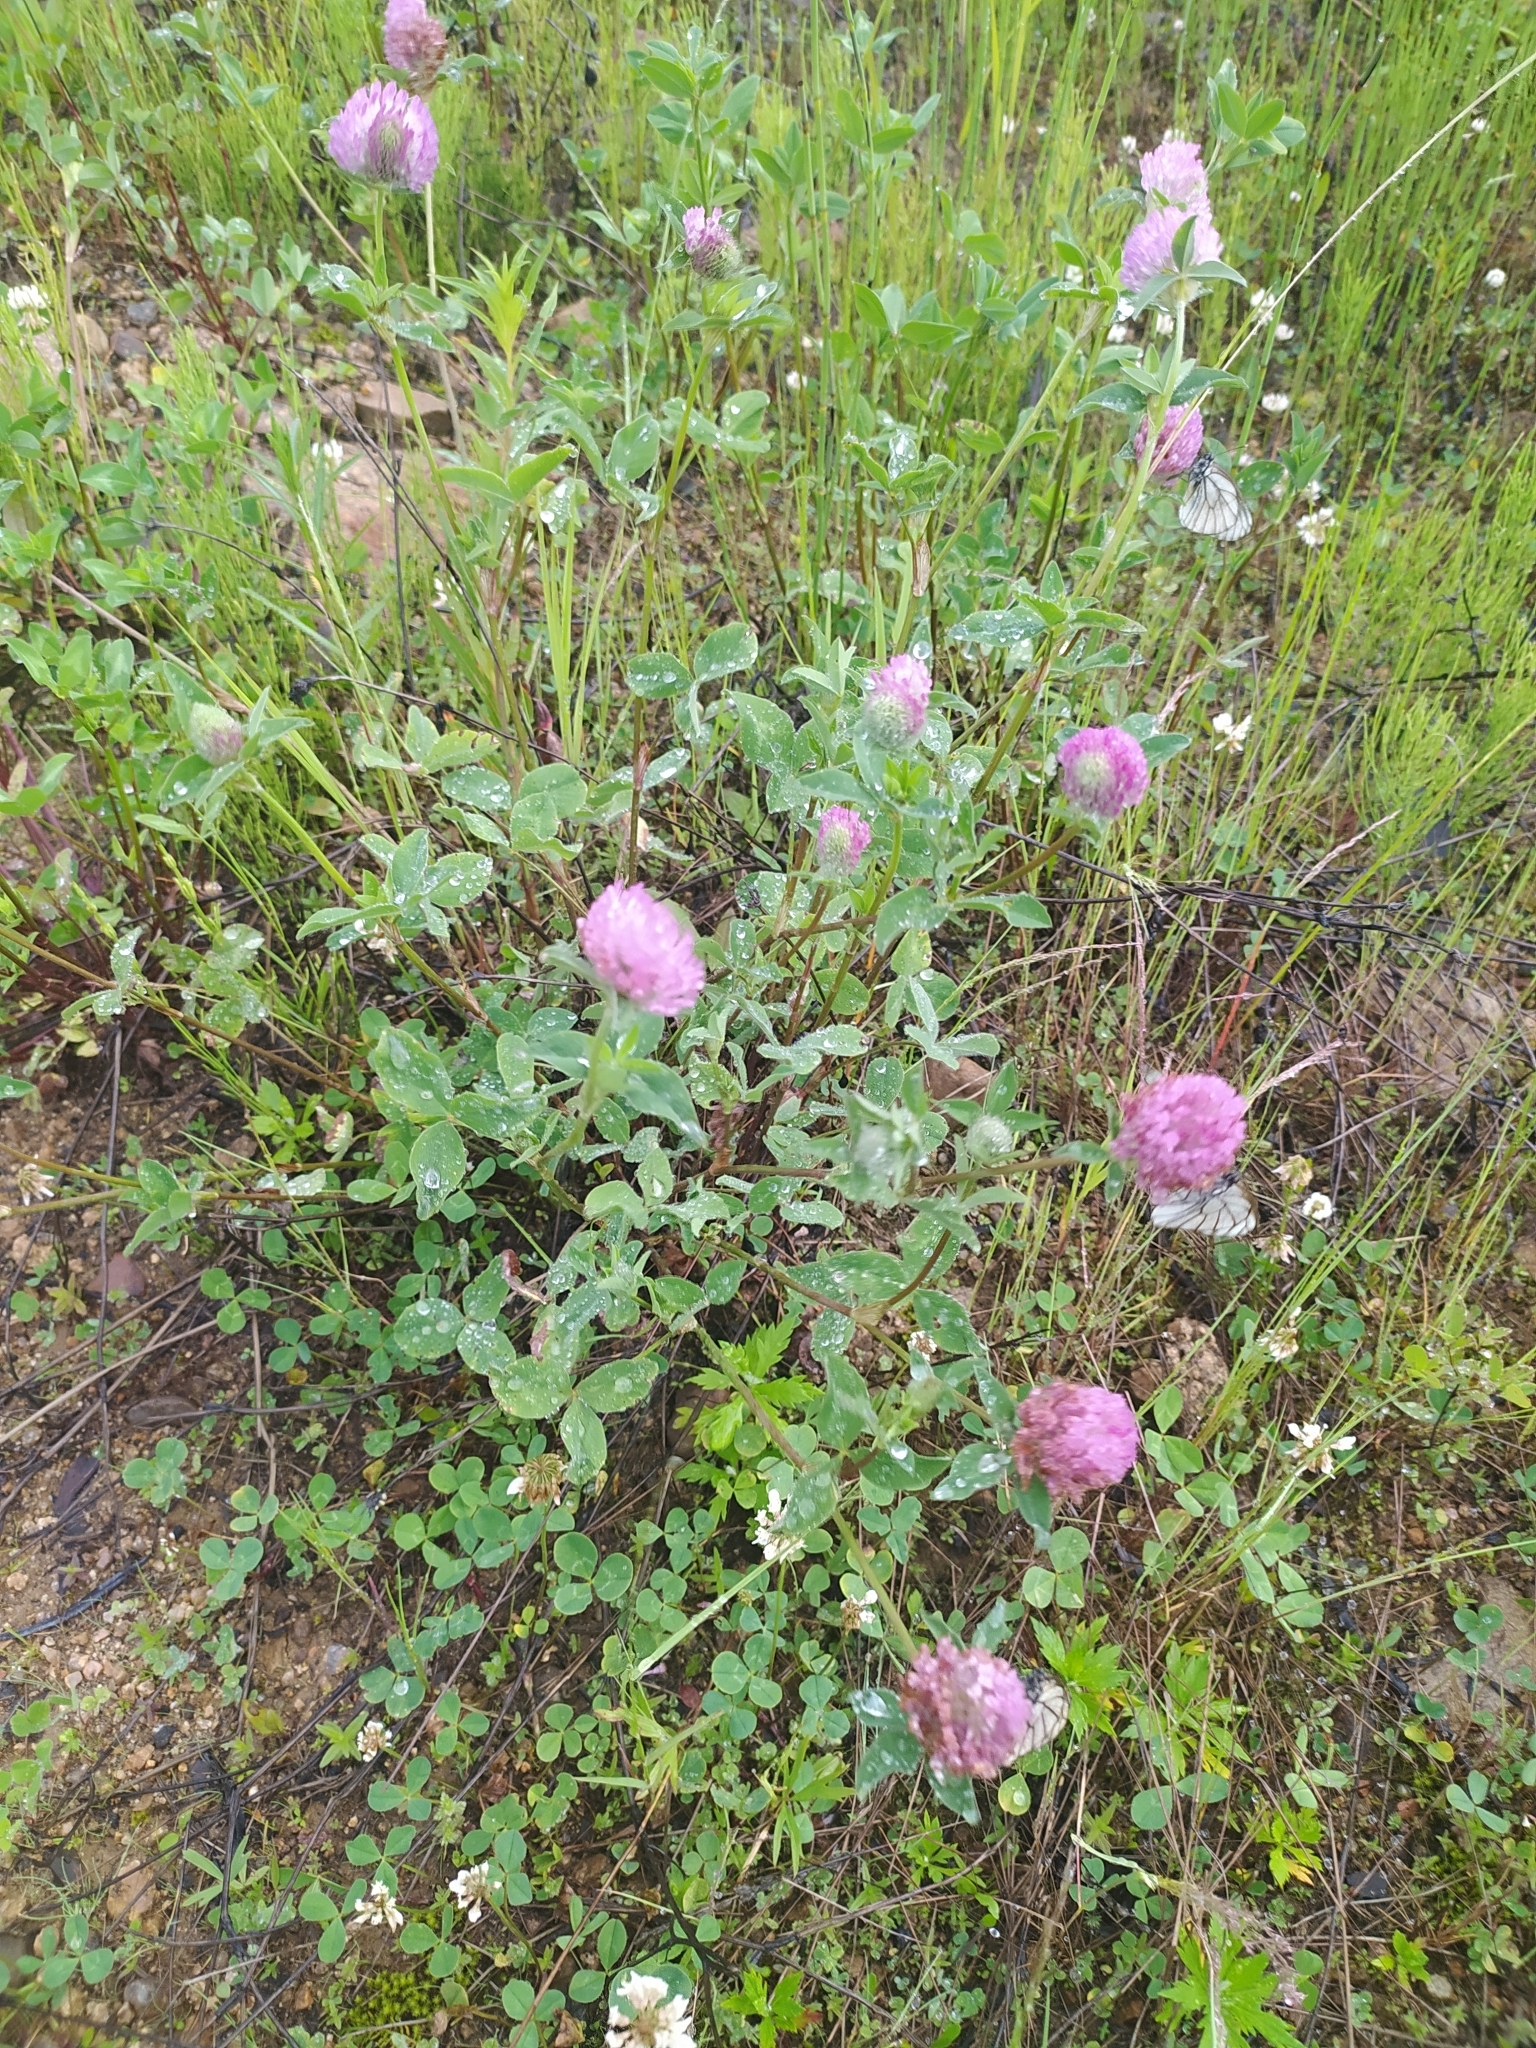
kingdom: Plantae
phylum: Tracheophyta
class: Magnoliopsida
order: Fabales
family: Fabaceae
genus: Trifolium
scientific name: Trifolium pratense
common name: Red clover
